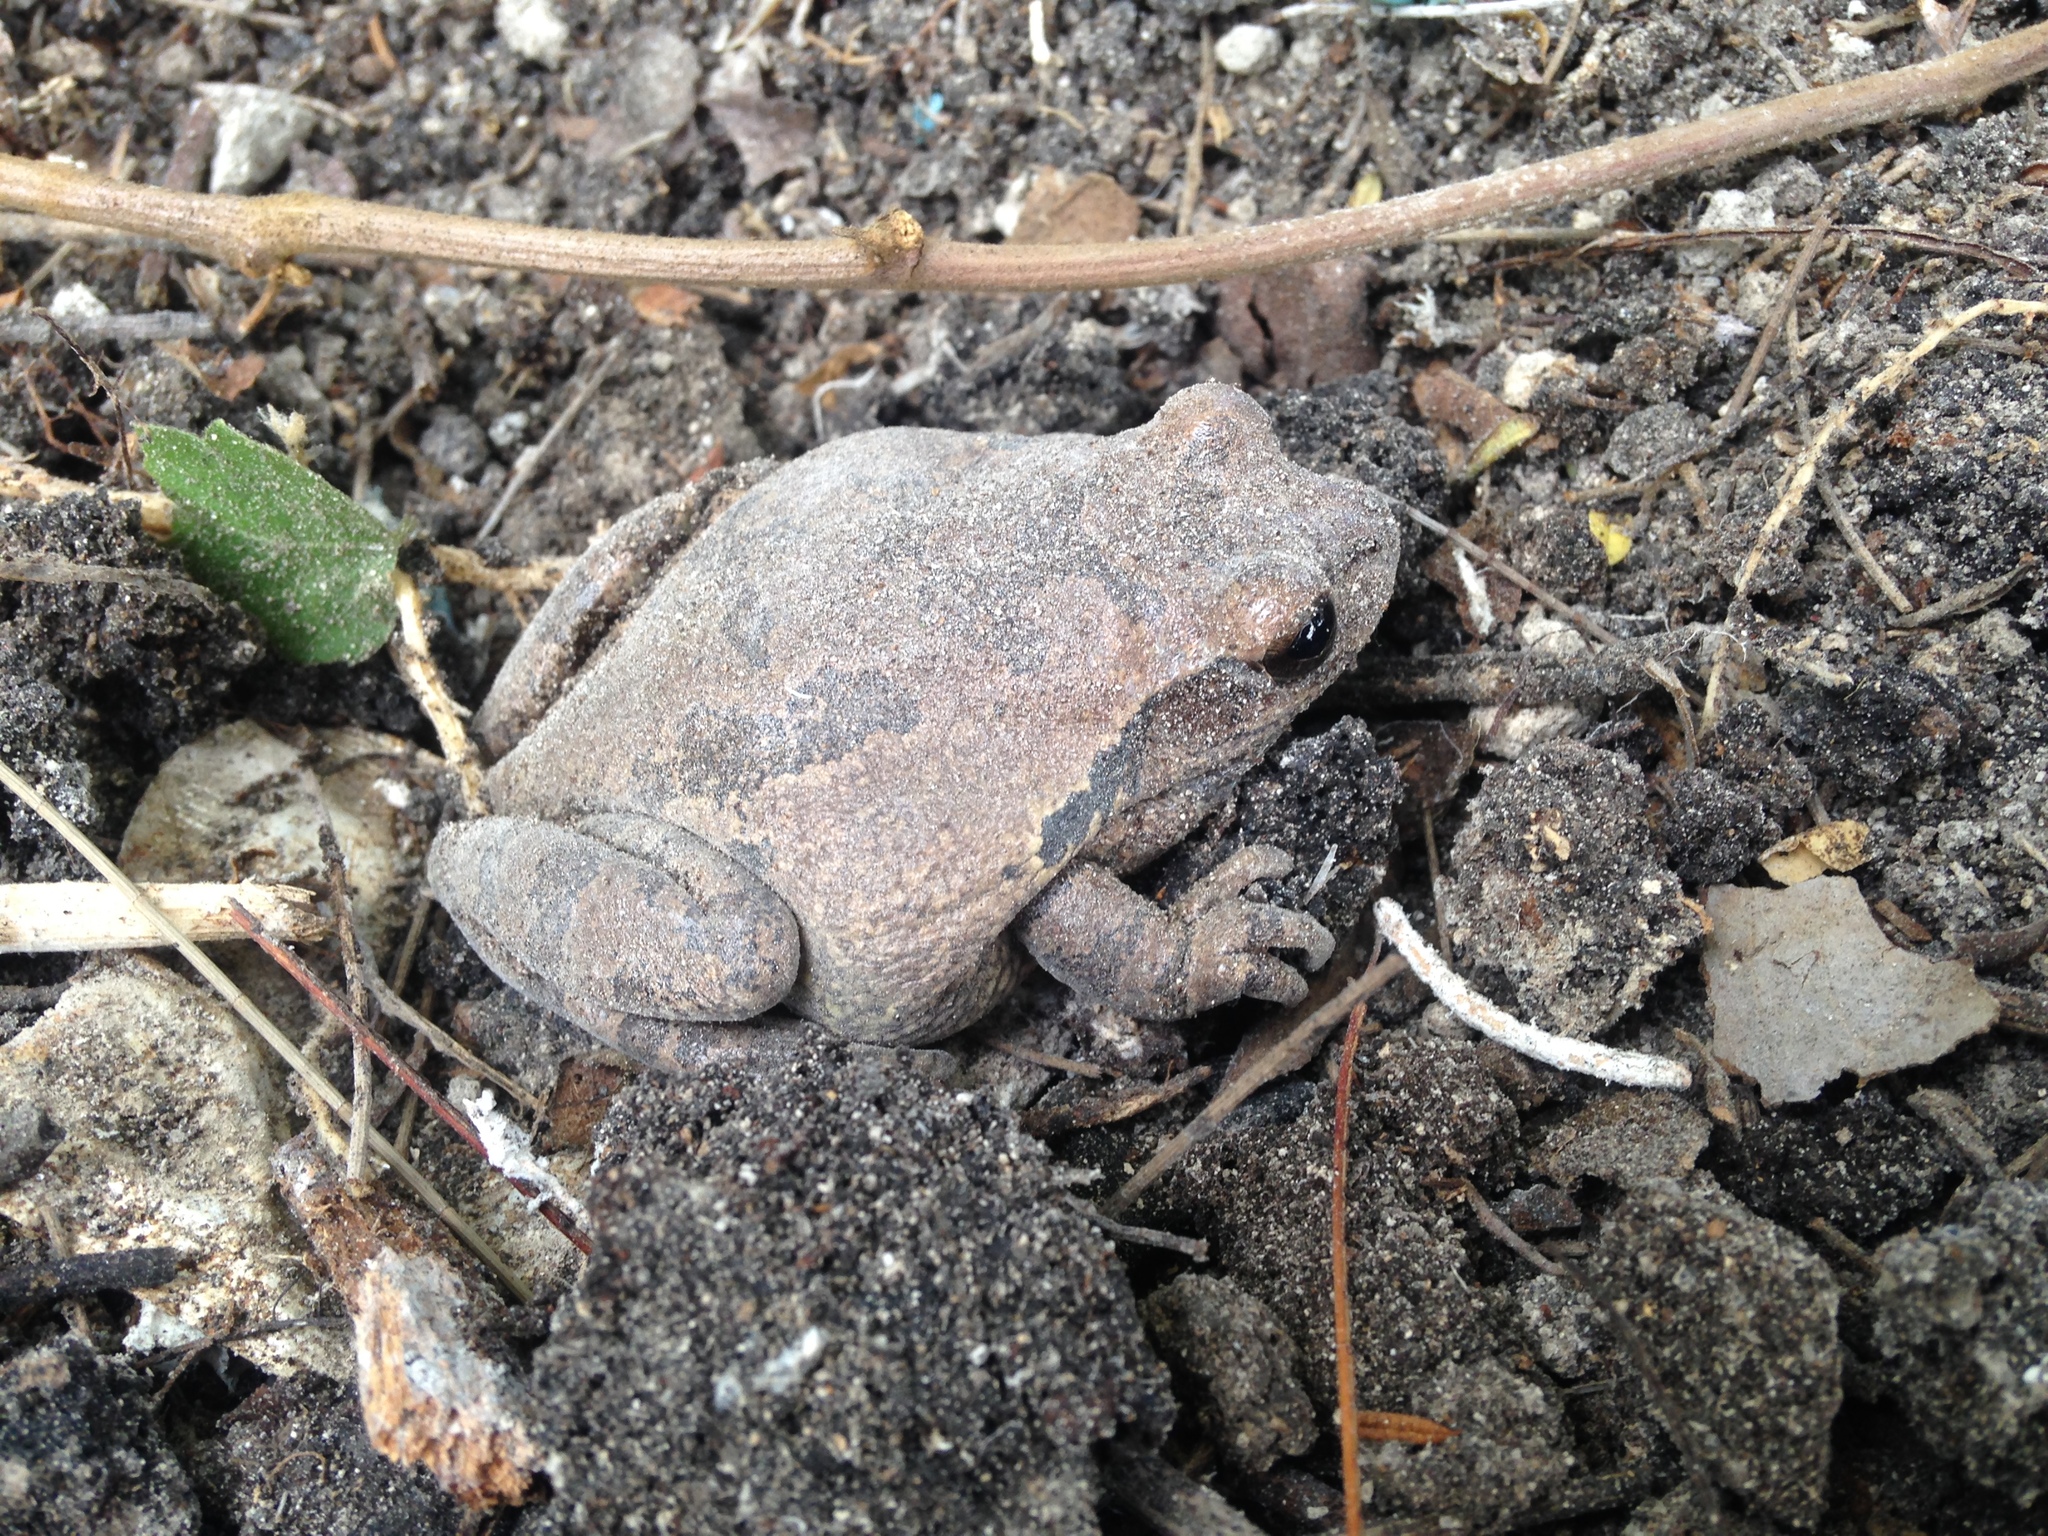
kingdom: Animalia
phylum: Chordata
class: Amphibia
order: Anura
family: Hylidae
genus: Smilisca
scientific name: Smilisca baudinii
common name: Mexican smilisca
